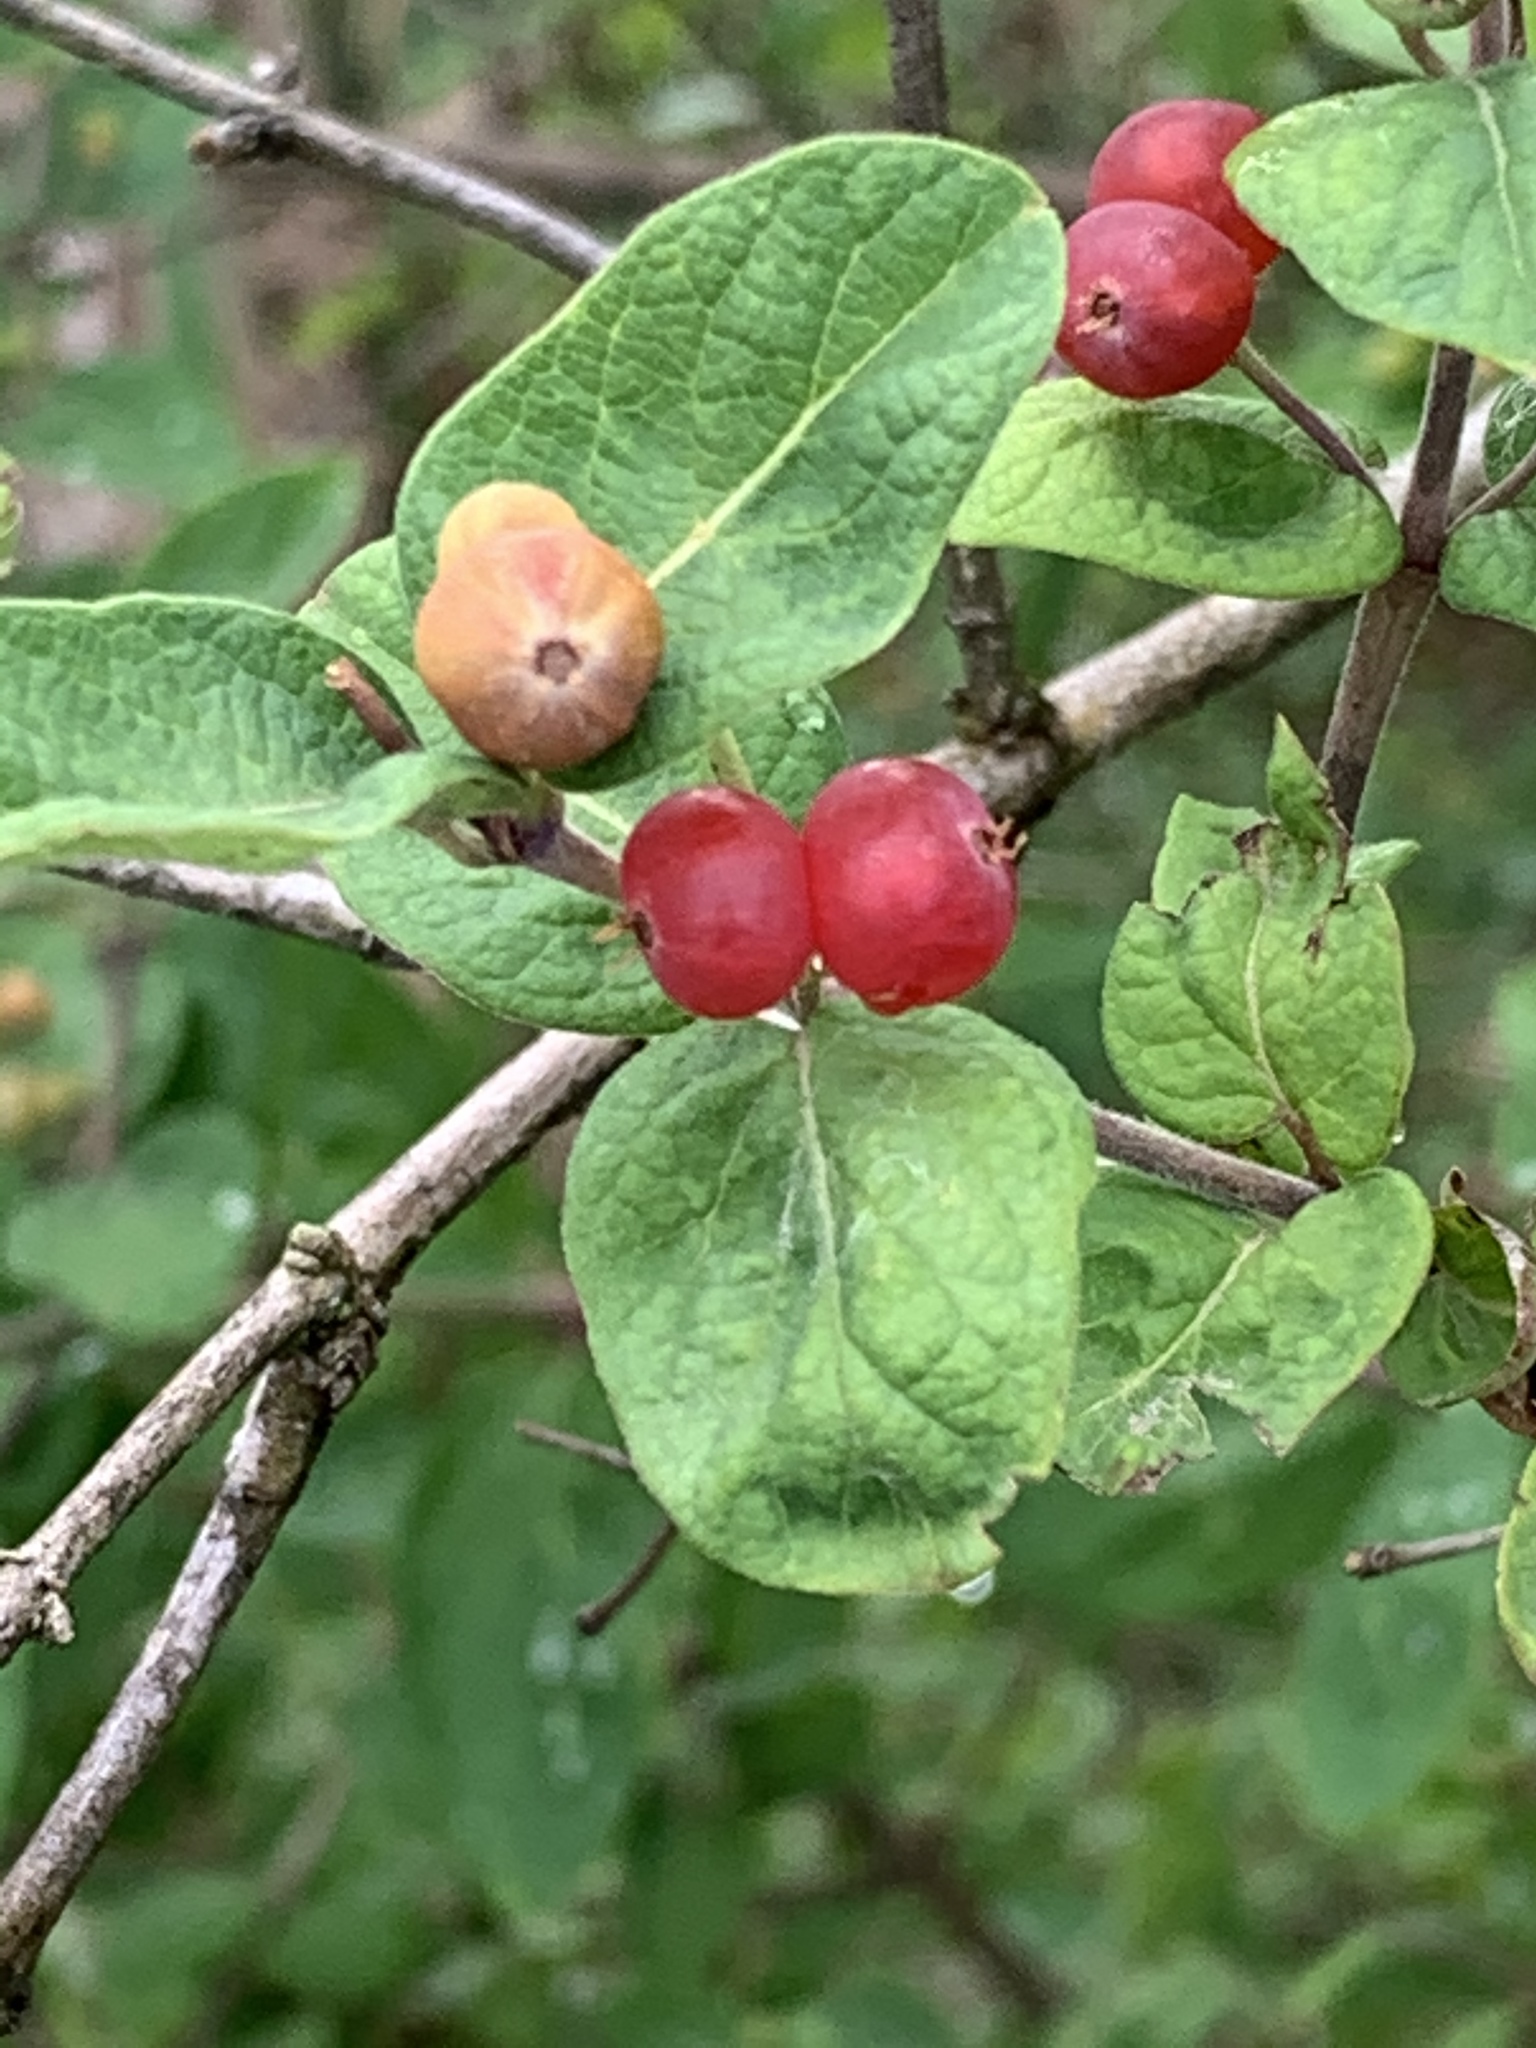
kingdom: Plantae
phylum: Tracheophyta
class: Magnoliopsida
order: Dipsacales
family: Caprifoliaceae
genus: Lonicera
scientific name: Lonicera morrowii
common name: Morrow's honeysuckle
